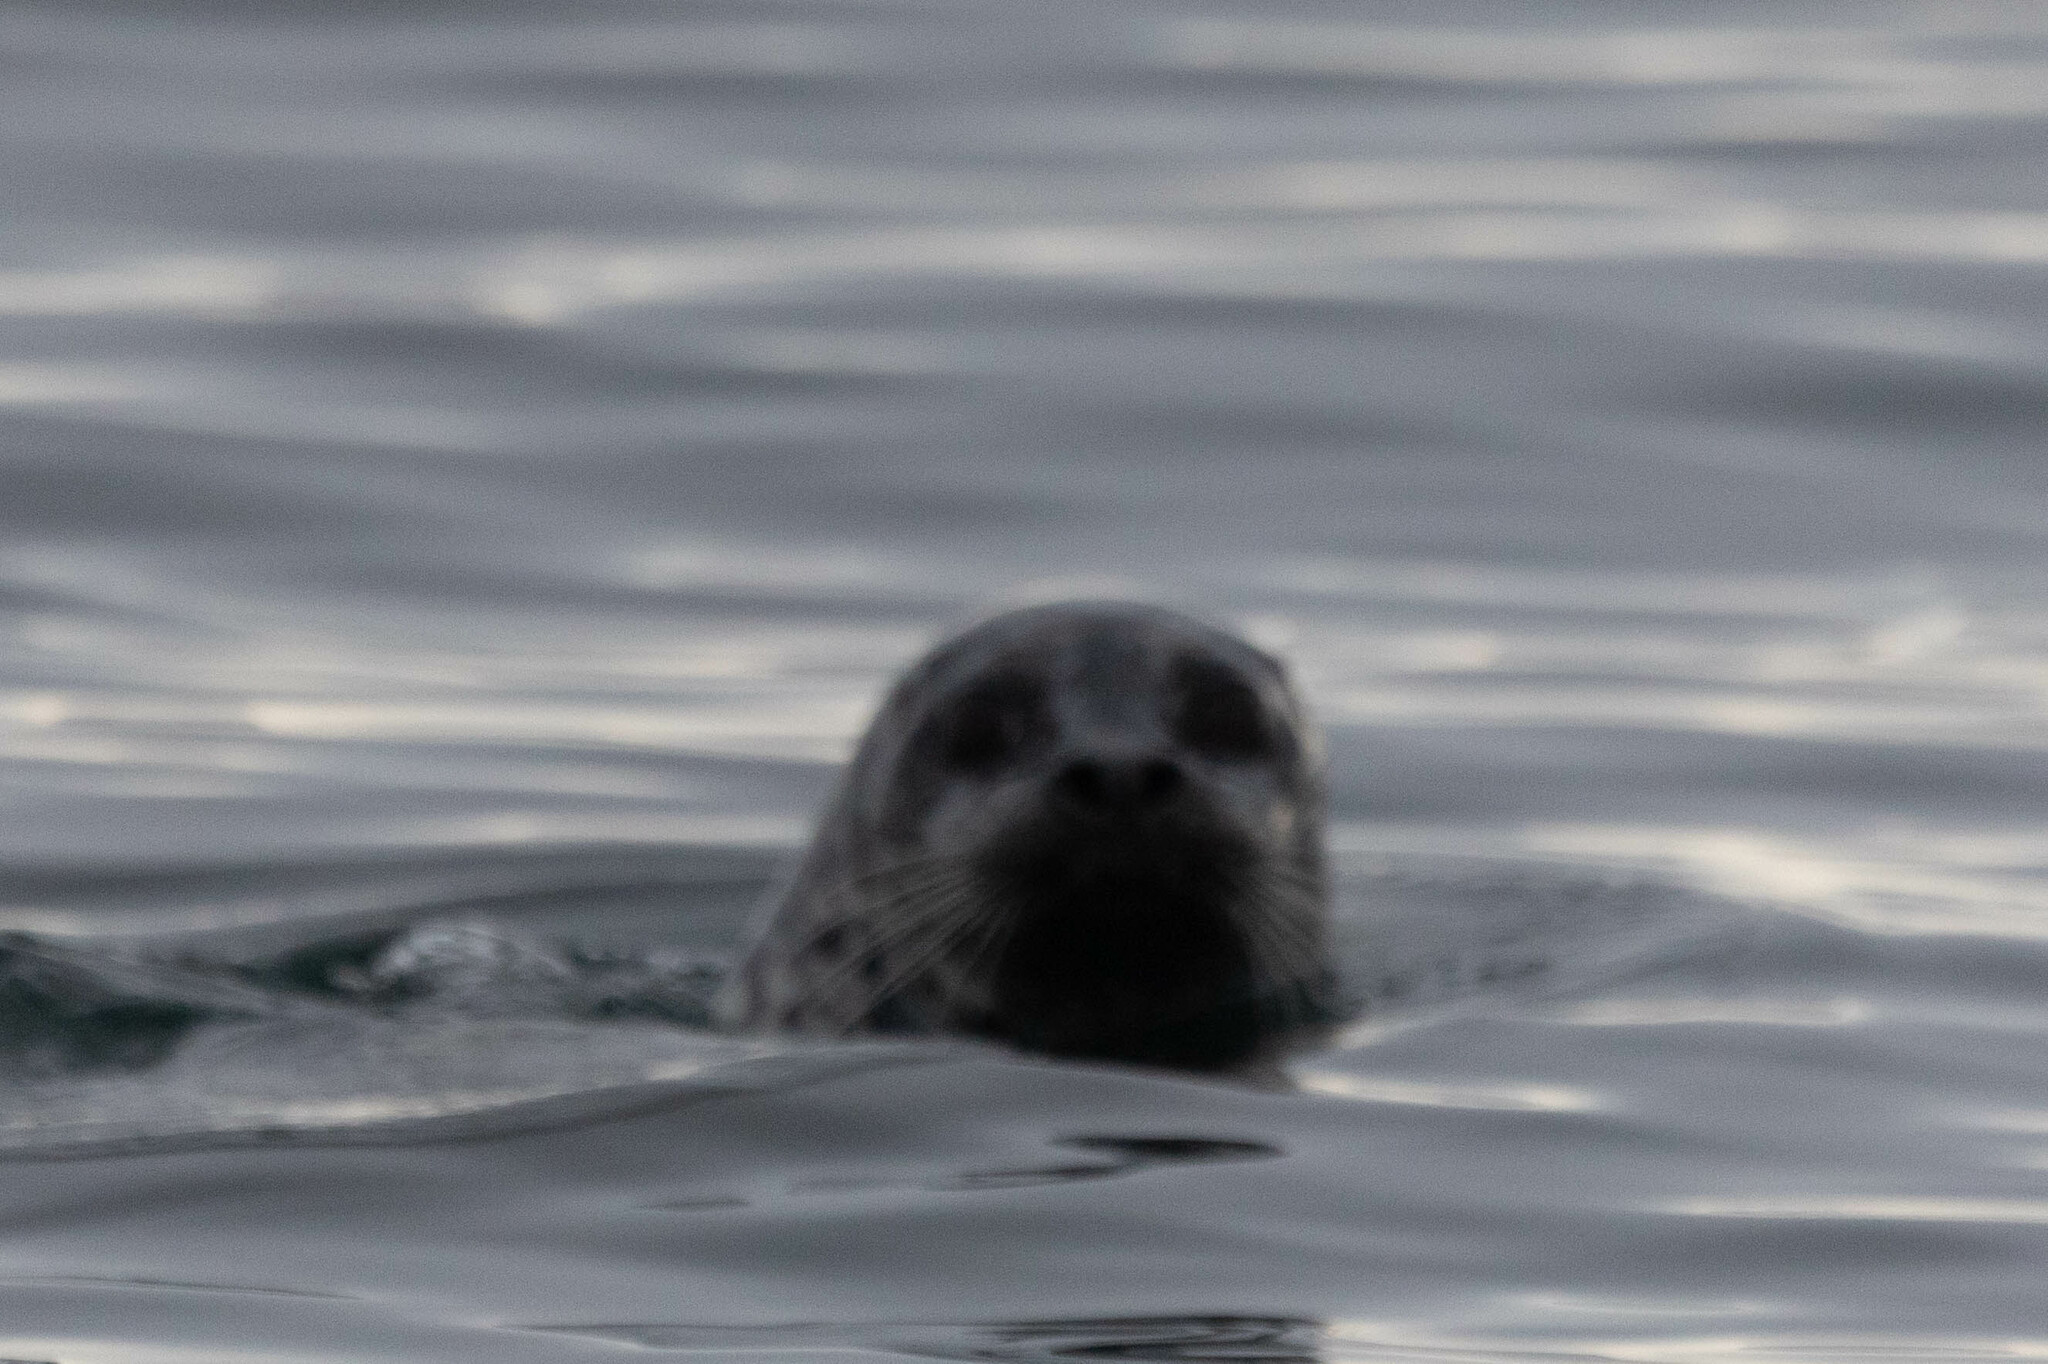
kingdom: Animalia
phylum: Chordata
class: Mammalia
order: Carnivora
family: Phocidae
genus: Phoca
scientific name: Phoca vitulina
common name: Harbor seal
